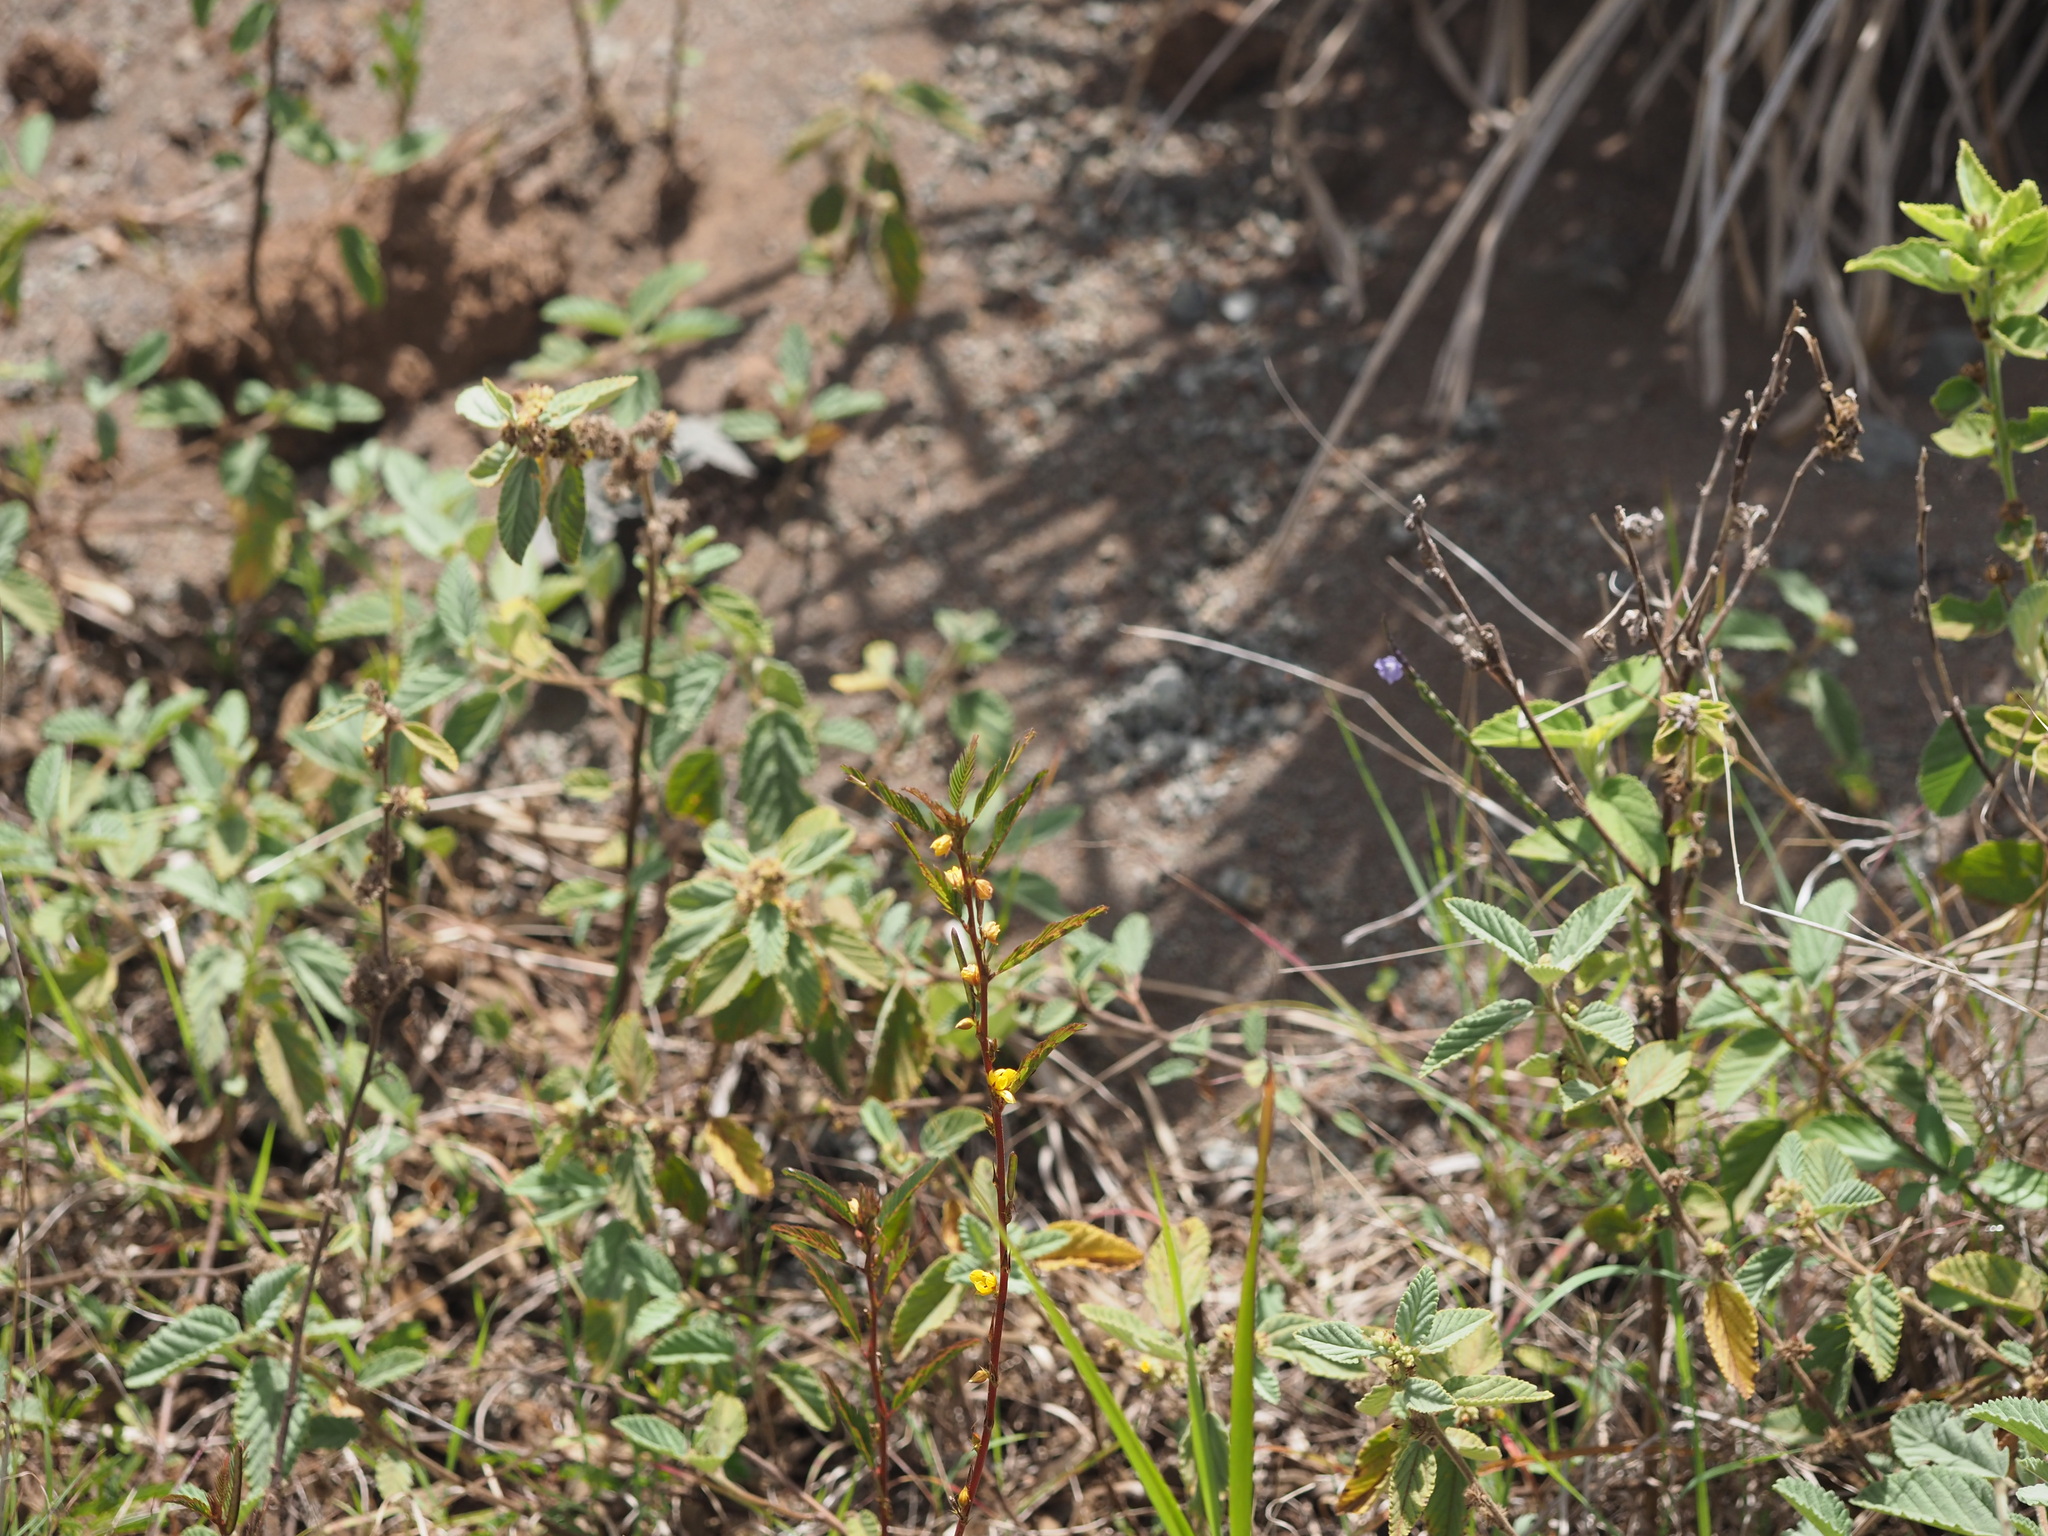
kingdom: Plantae
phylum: Tracheophyta
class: Magnoliopsida
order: Fabales
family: Fabaceae
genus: Chamaecrista
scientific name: Chamaecrista nictitans
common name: Sensitive cassia
